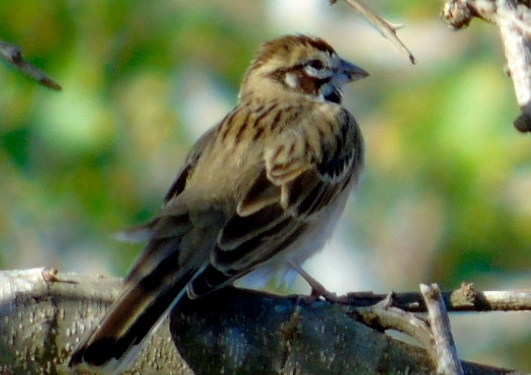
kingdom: Animalia
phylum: Chordata
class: Aves
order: Passeriformes
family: Passerellidae
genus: Chondestes
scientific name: Chondestes grammacus
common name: Lark sparrow
